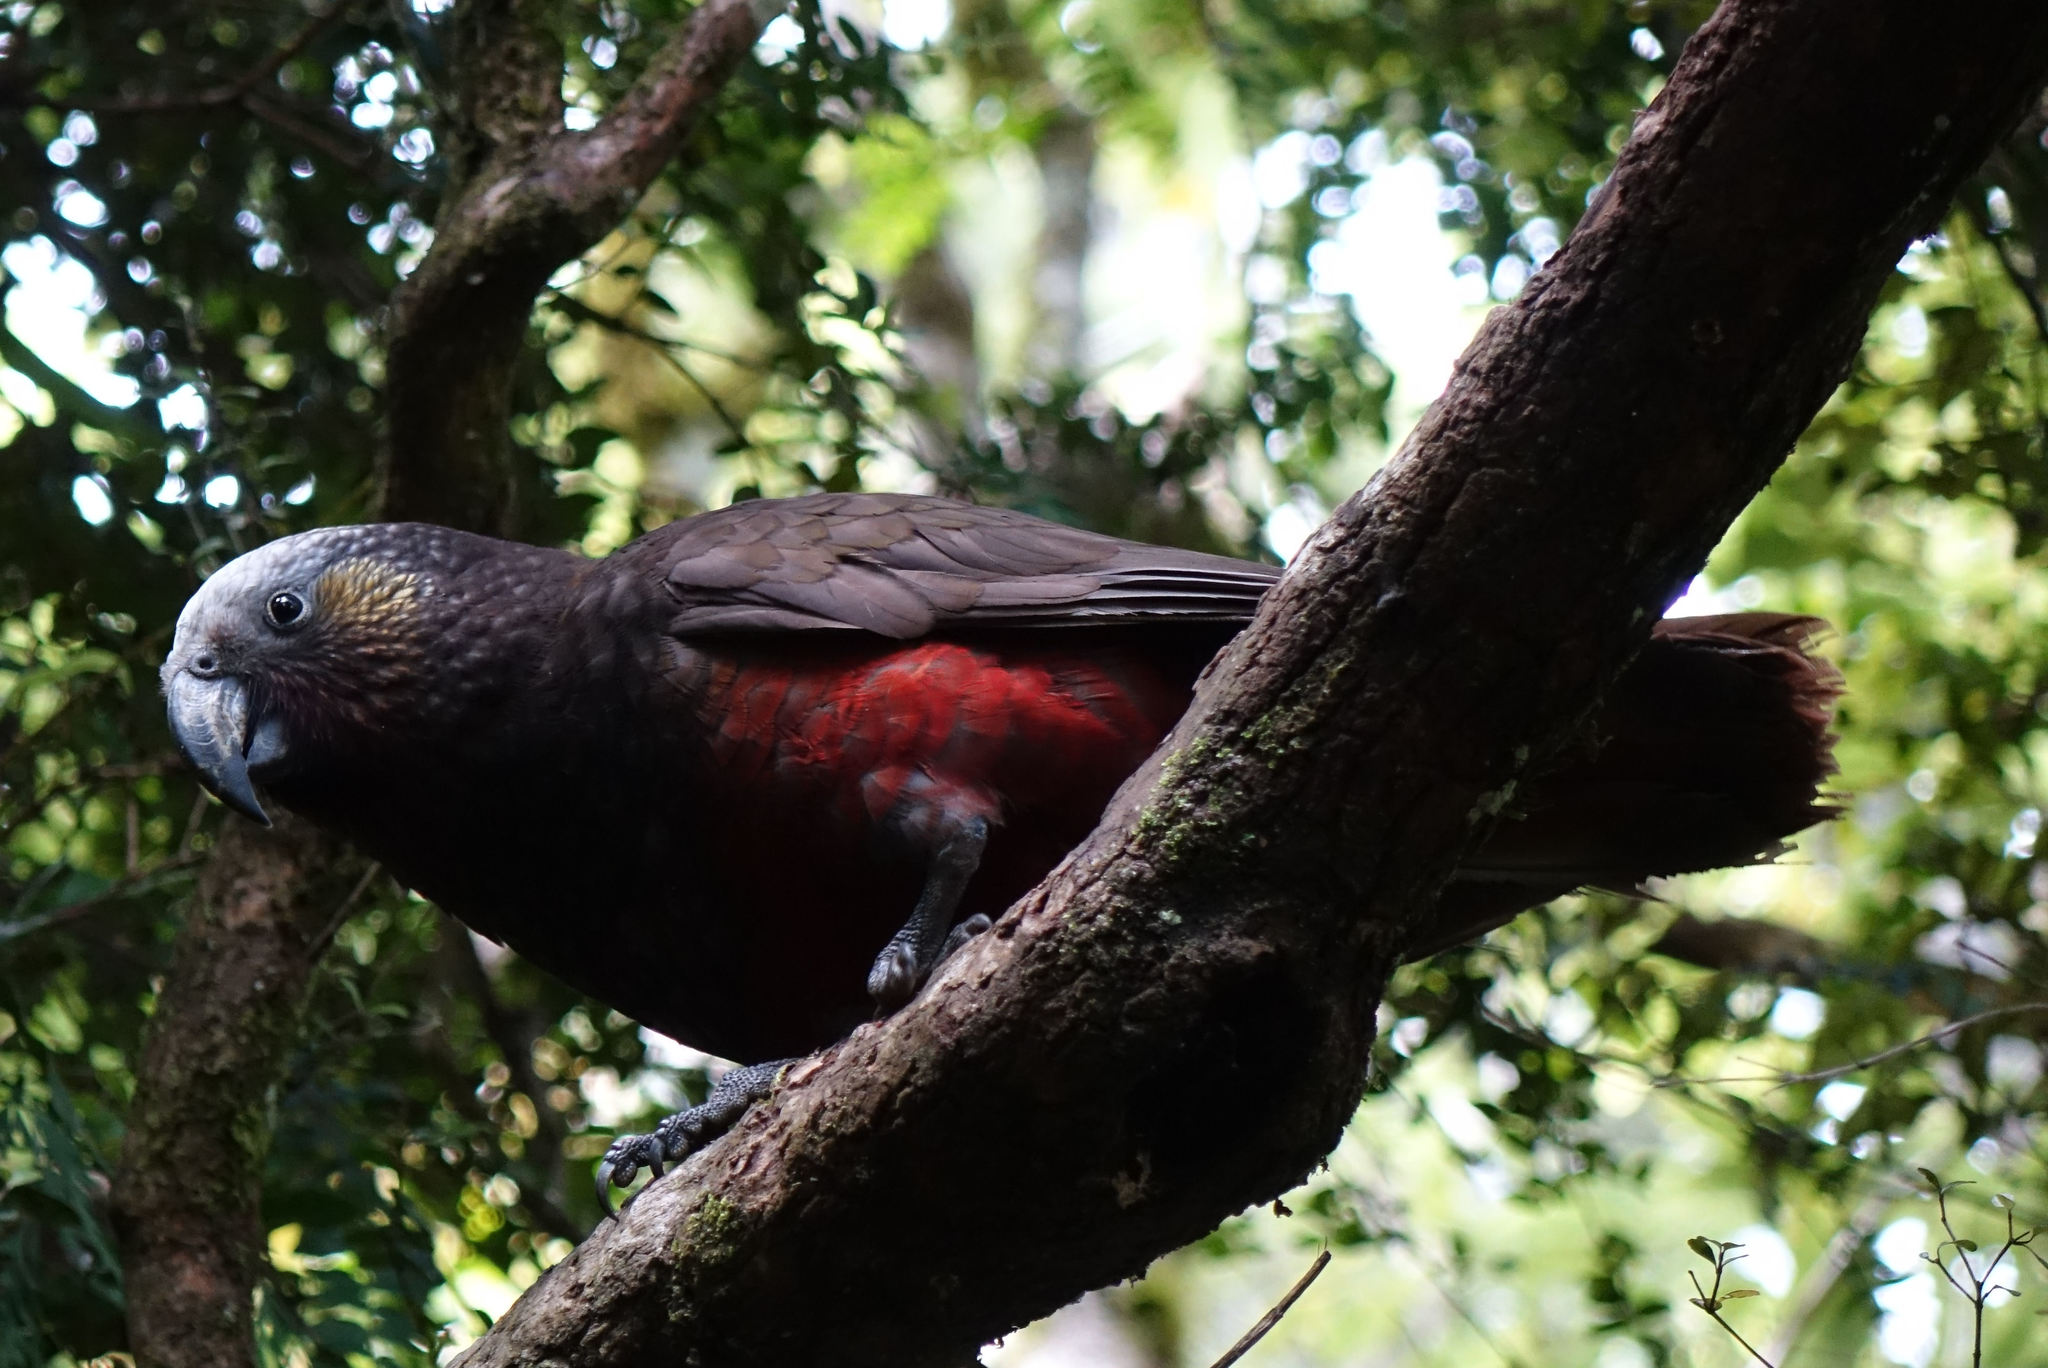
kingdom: Animalia
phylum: Chordata
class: Aves
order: Psittaciformes
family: Psittacidae
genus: Nestor
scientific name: Nestor meridionalis
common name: New zealand kaka
